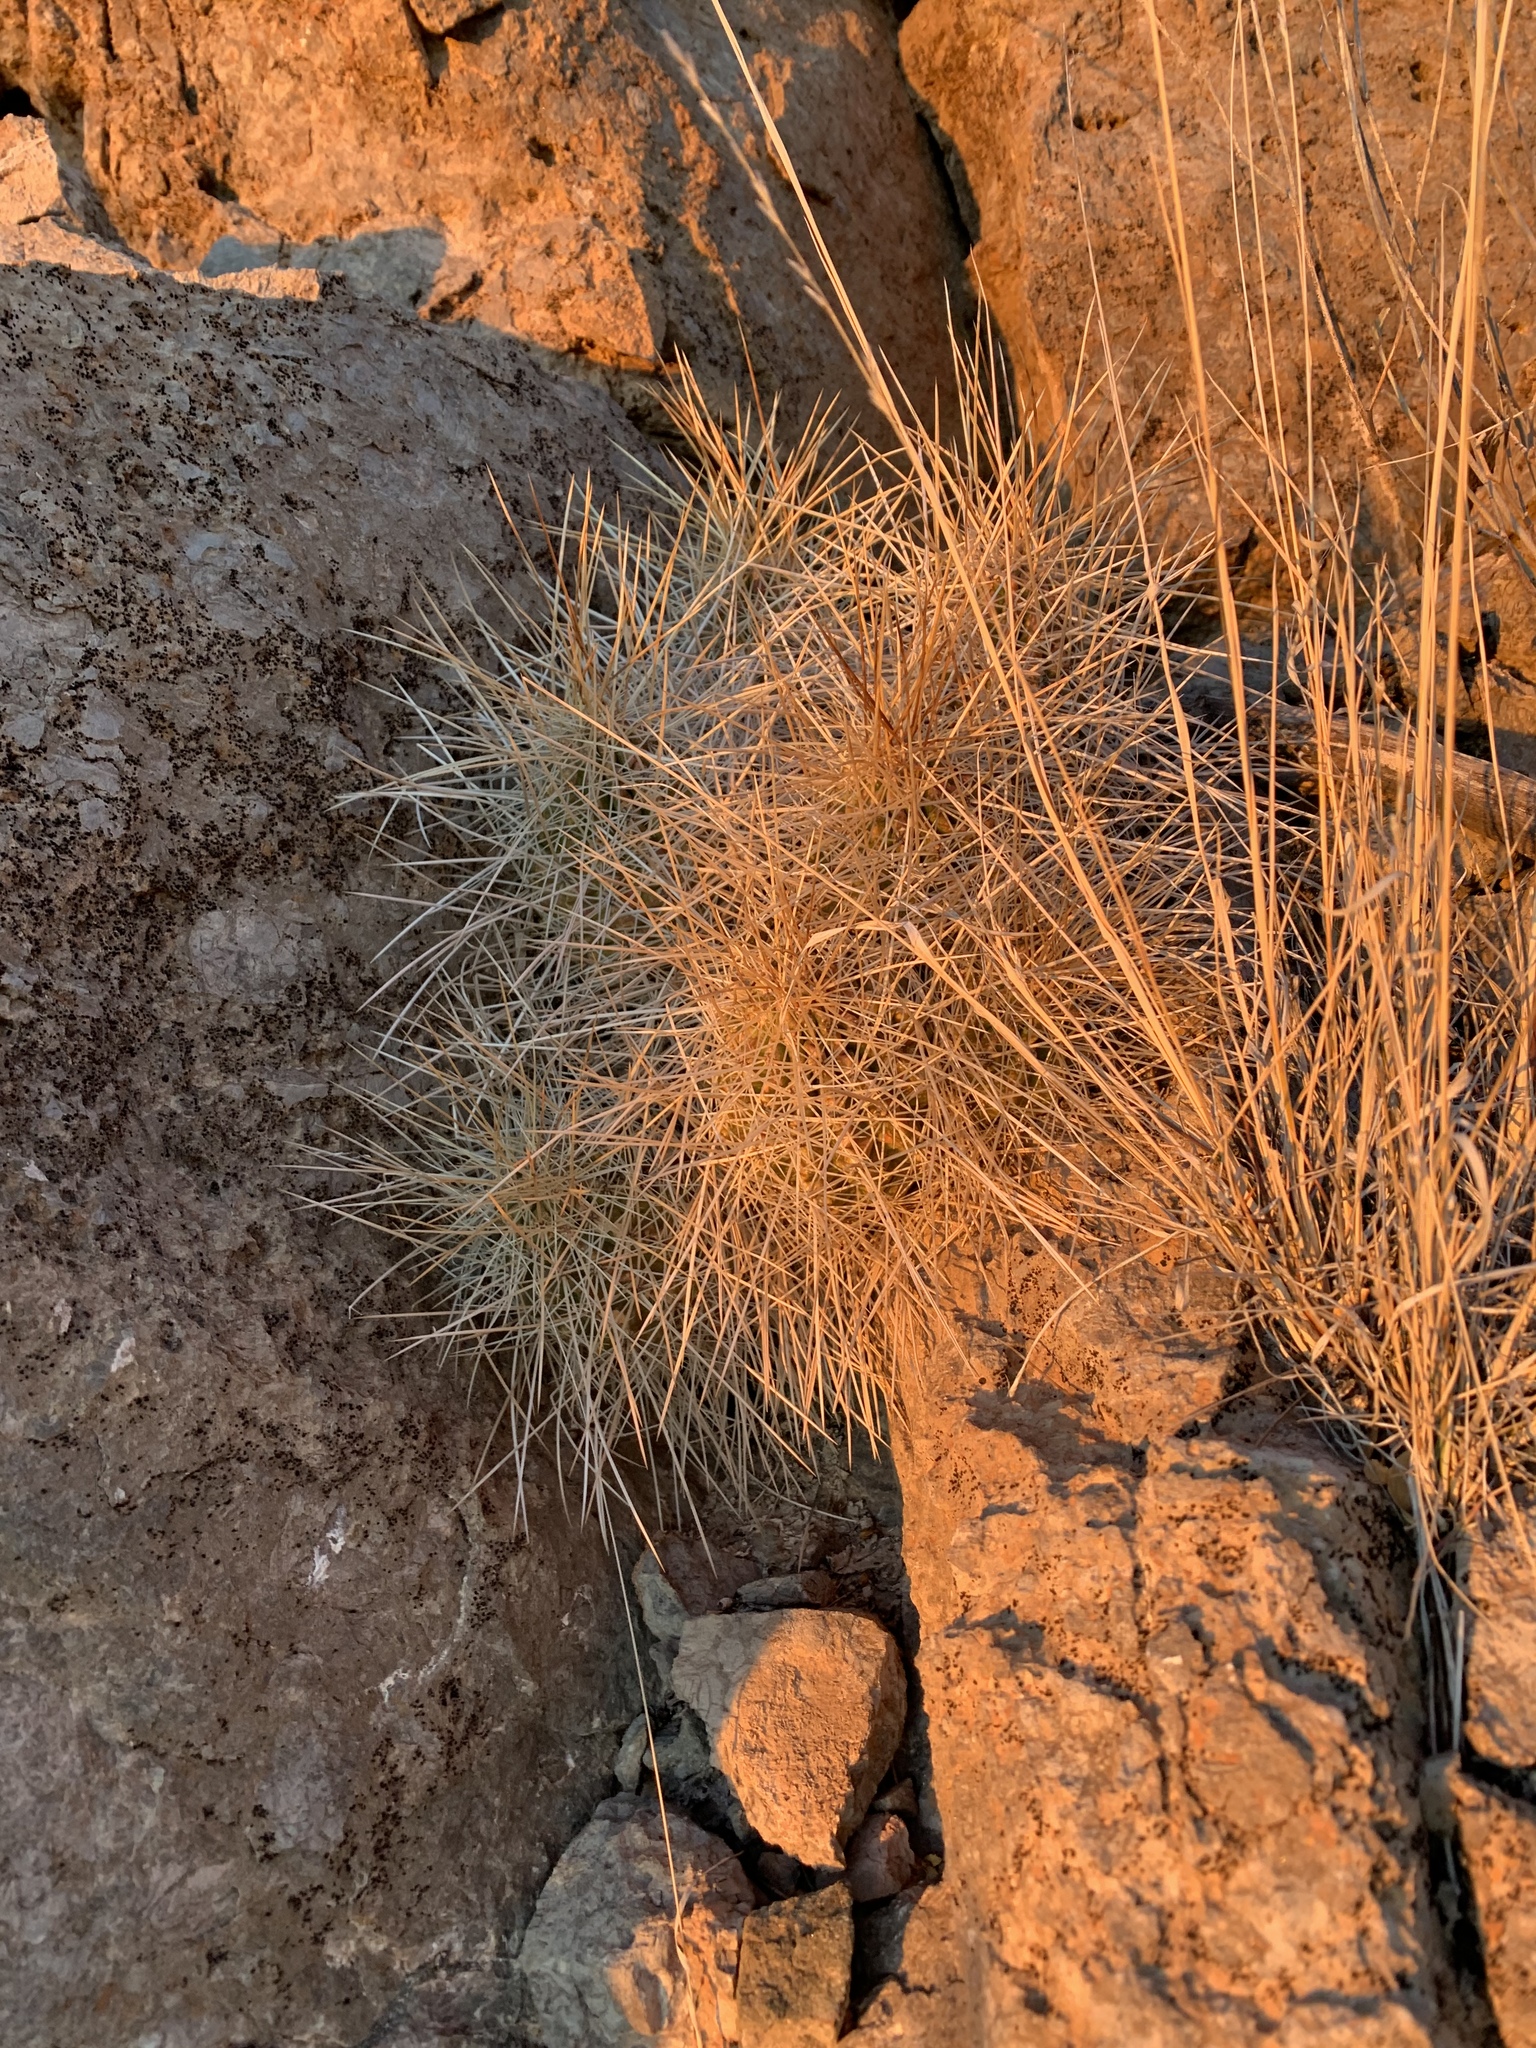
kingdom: Plantae
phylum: Tracheophyta
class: Magnoliopsida
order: Caryophyllales
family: Cactaceae
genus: Echinocereus
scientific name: Echinocereus stramineus
